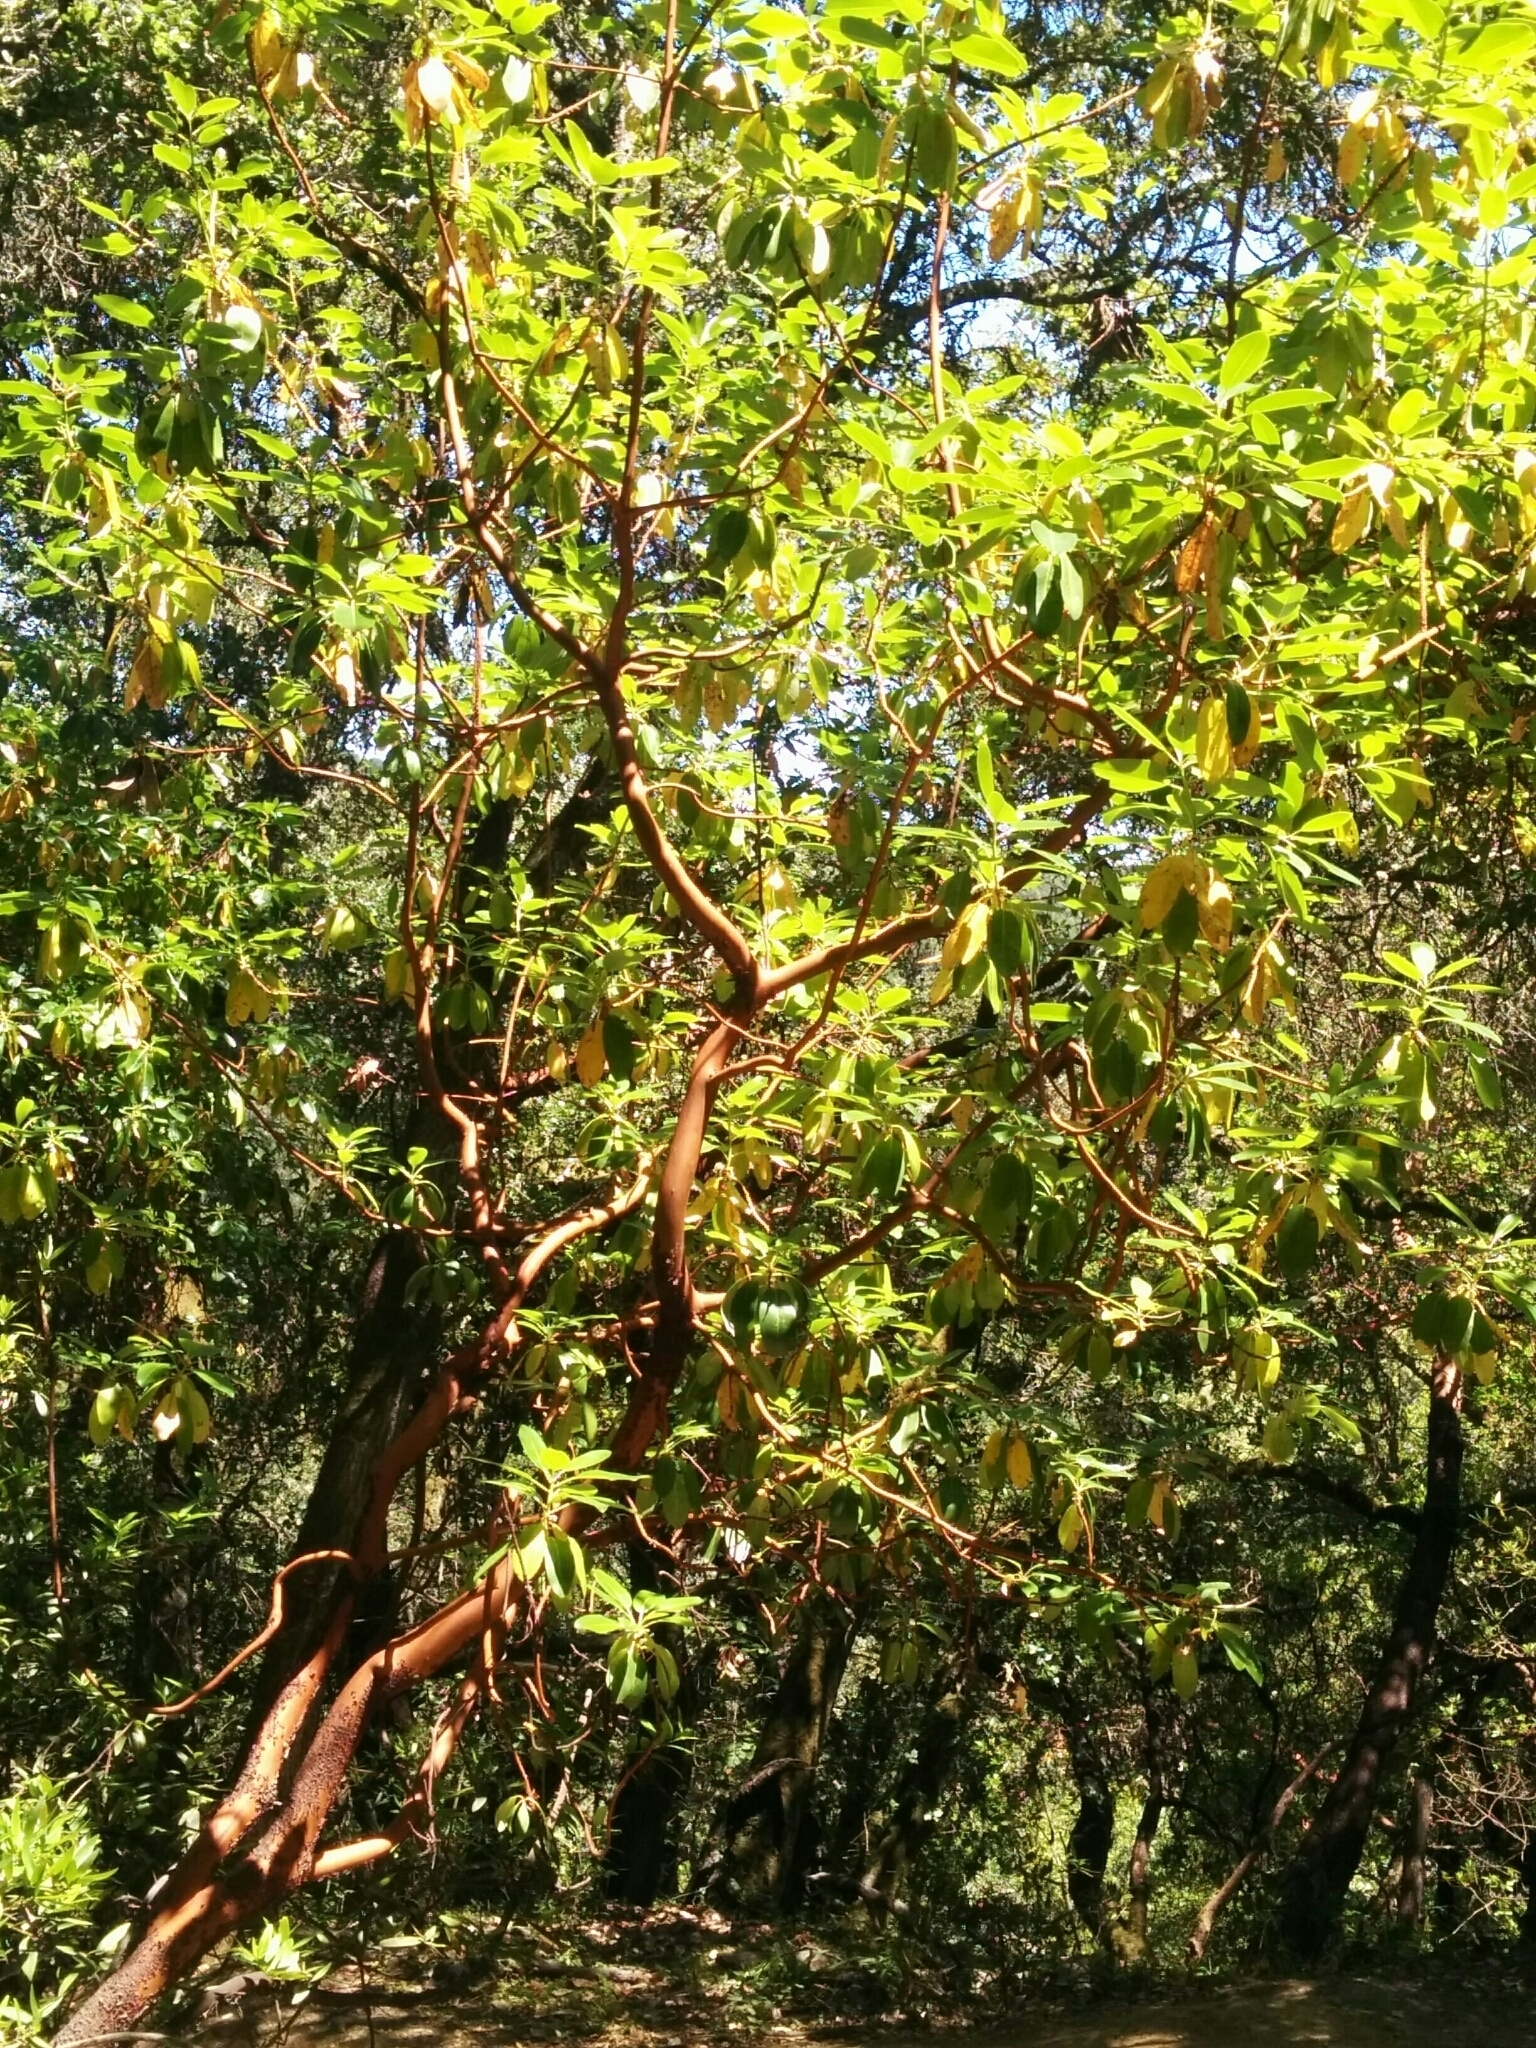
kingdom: Plantae
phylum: Tracheophyta
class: Magnoliopsida
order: Ericales
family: Ericaceae
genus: Arbutus
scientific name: Arbutus menziesii
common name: Pacific madrone
